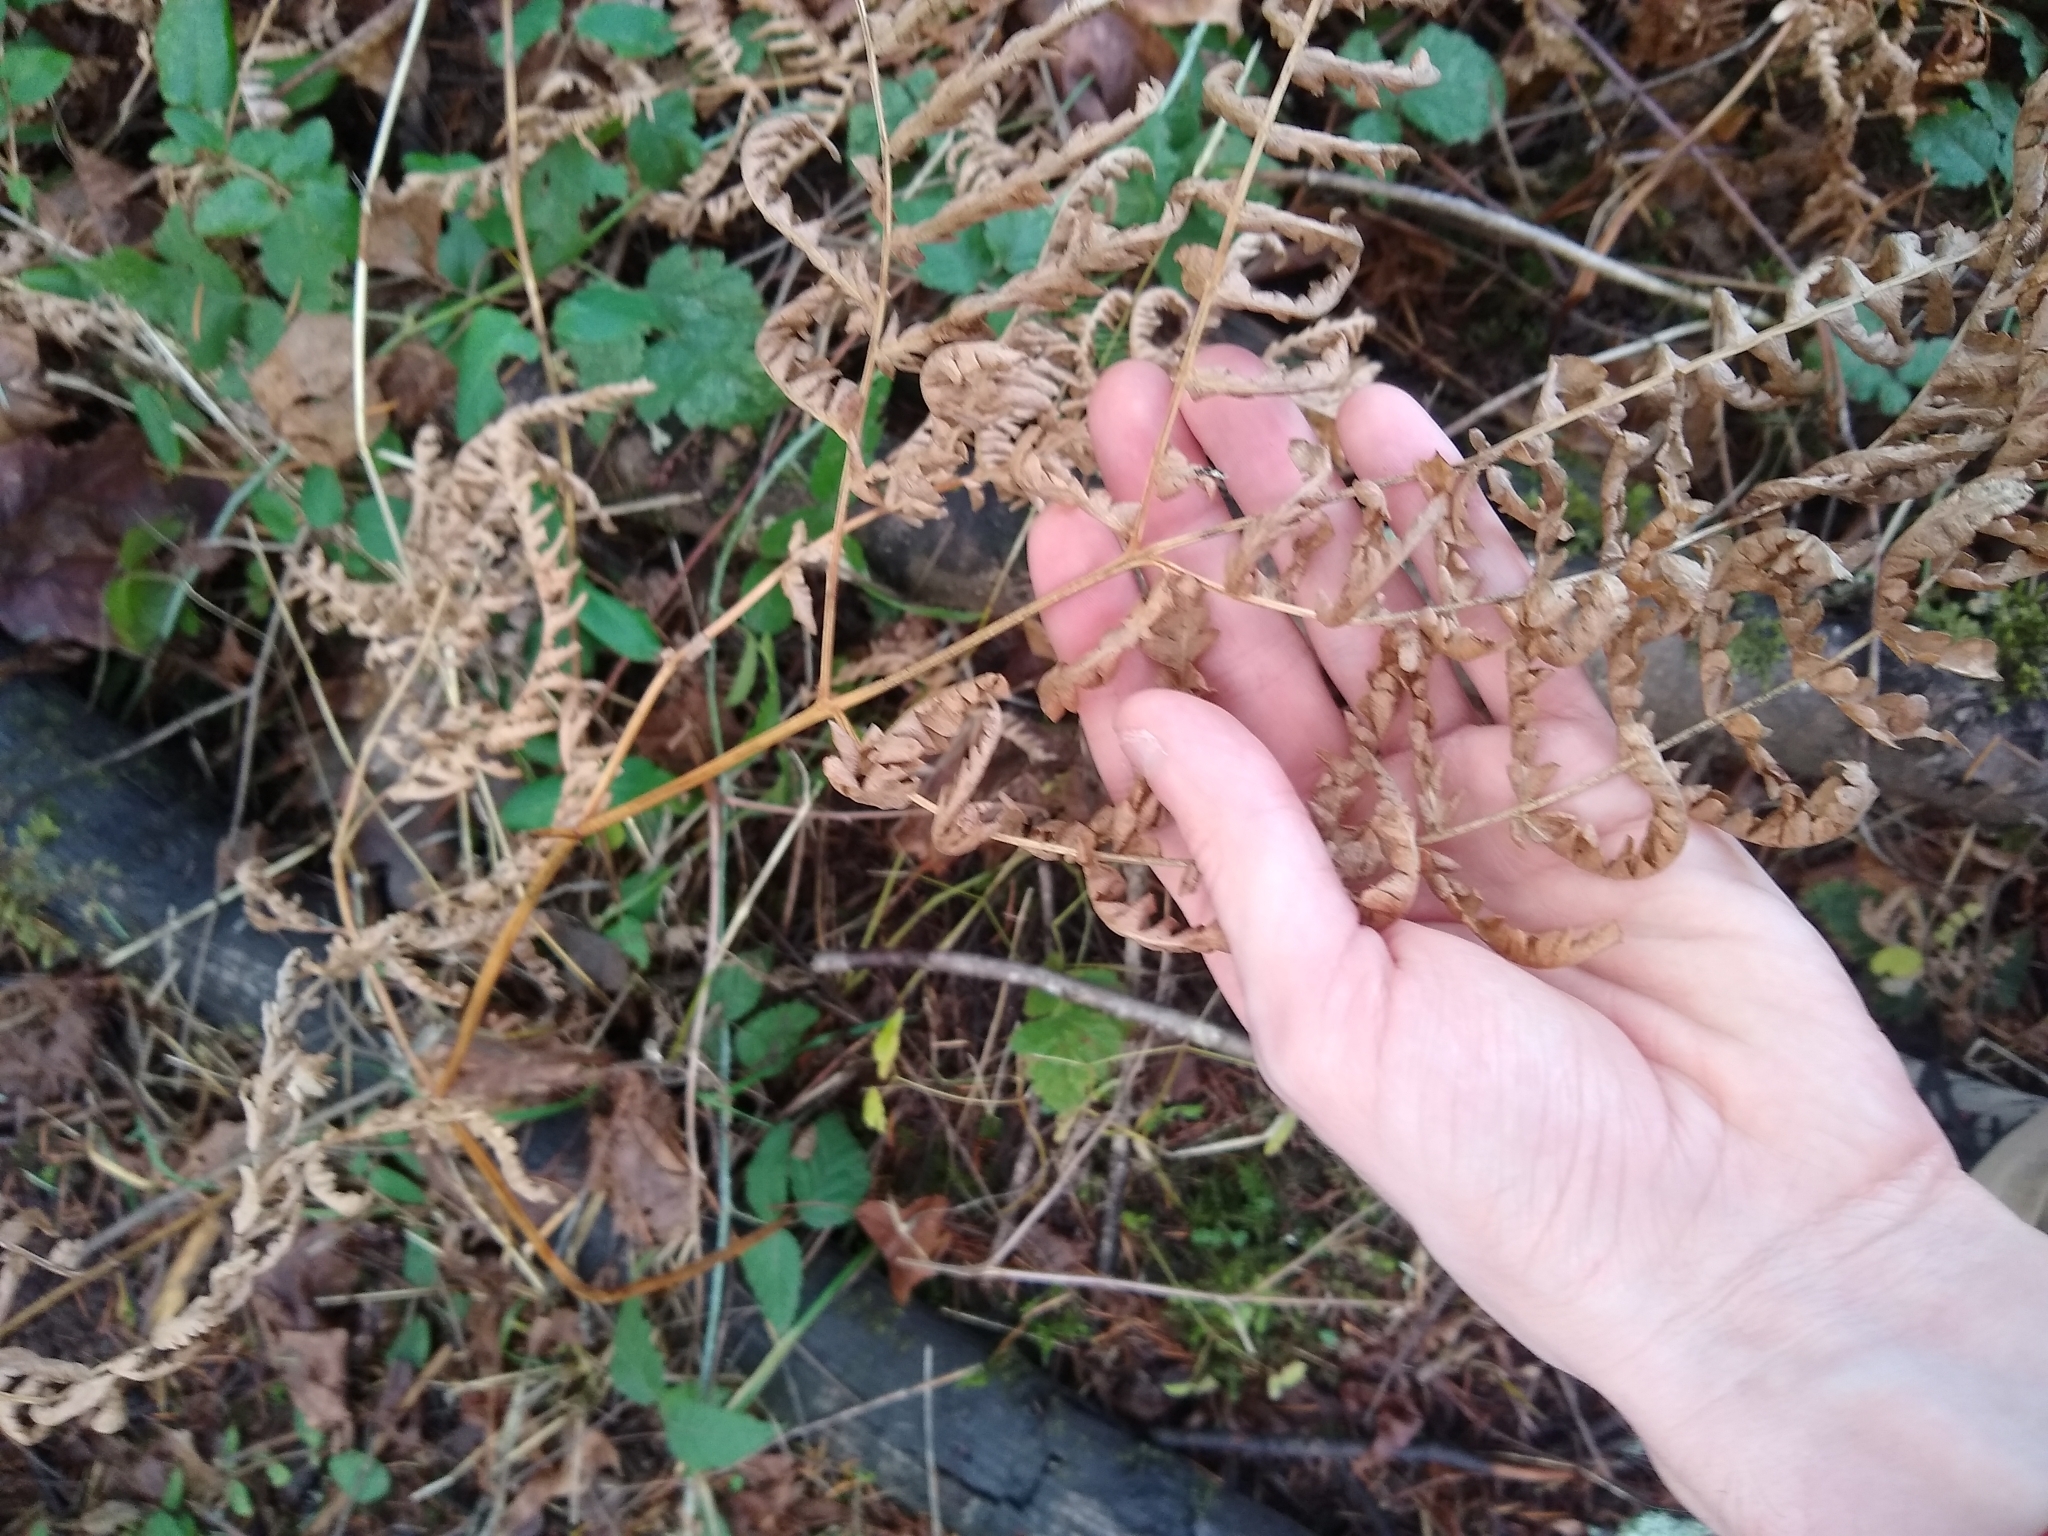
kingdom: Plantae
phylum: Tracheophyta
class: Polypodiopsida
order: Polypodiales
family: Dennstaedtiaceae
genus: Pteridium
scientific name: Pteridium aquilinum
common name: Bracken
